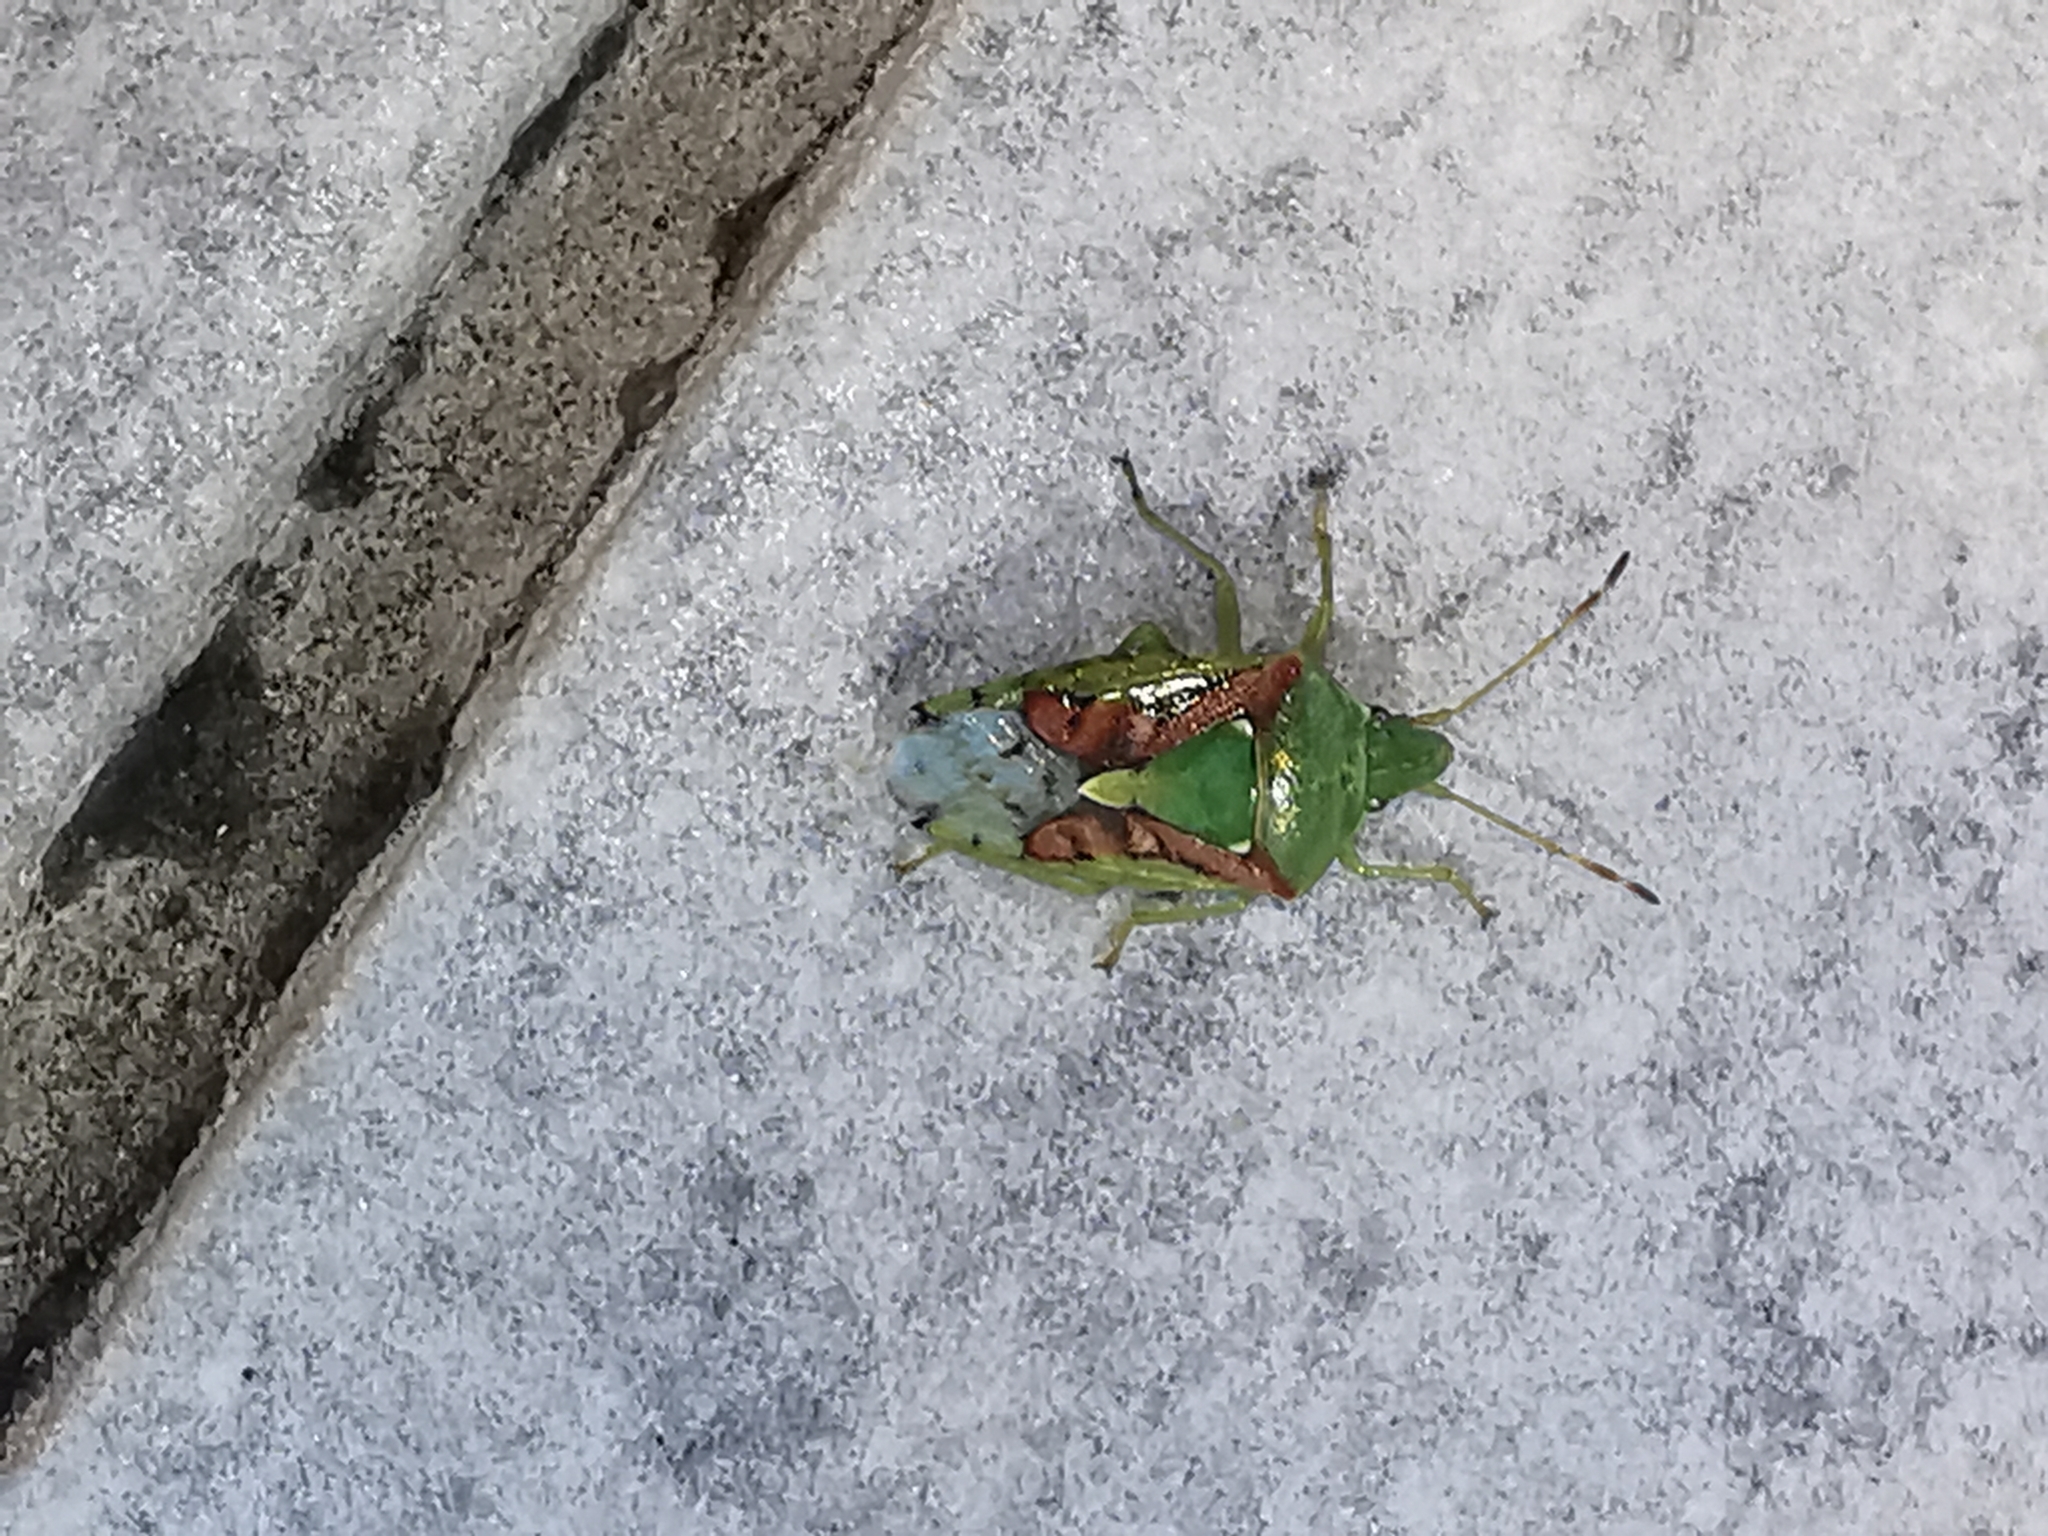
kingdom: Animalia
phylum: Arthropoda
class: Insecta
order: Hemiptera
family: Acanthosomatidae
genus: Cyphostethus
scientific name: Cyphostethus tristriatus
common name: Juniper shieldbug
